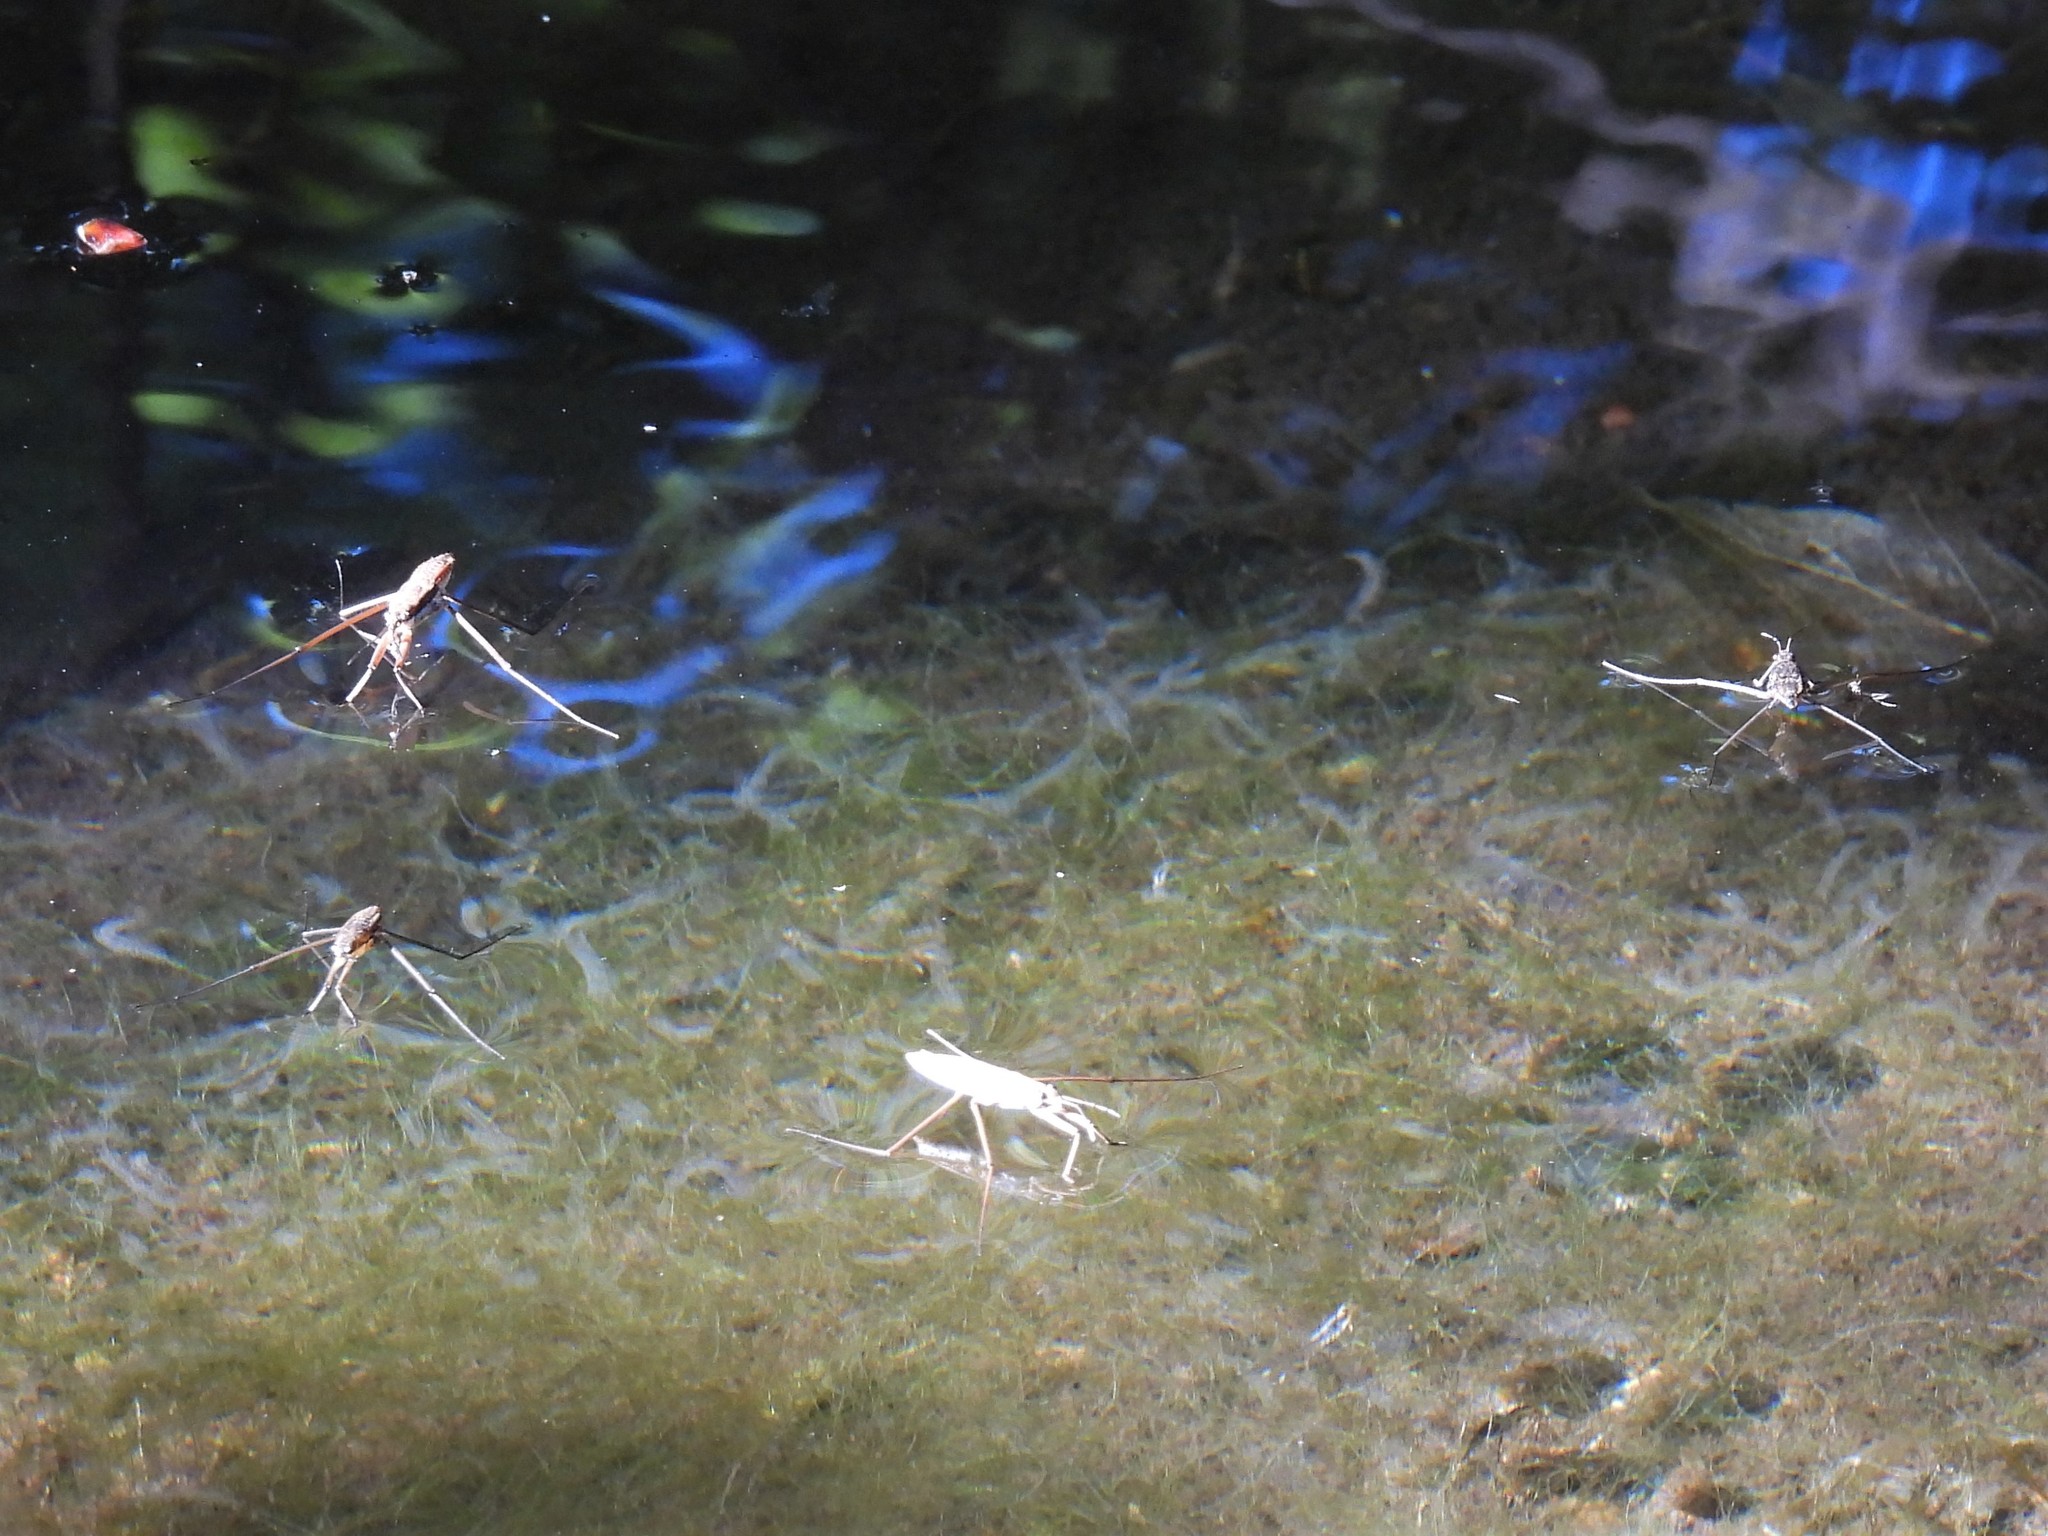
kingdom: Animalia
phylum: Arthropoda
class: Insecta
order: Hemiptera
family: Gerridae
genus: Aquarius
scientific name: Aquarius remigis
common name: Common water strider
